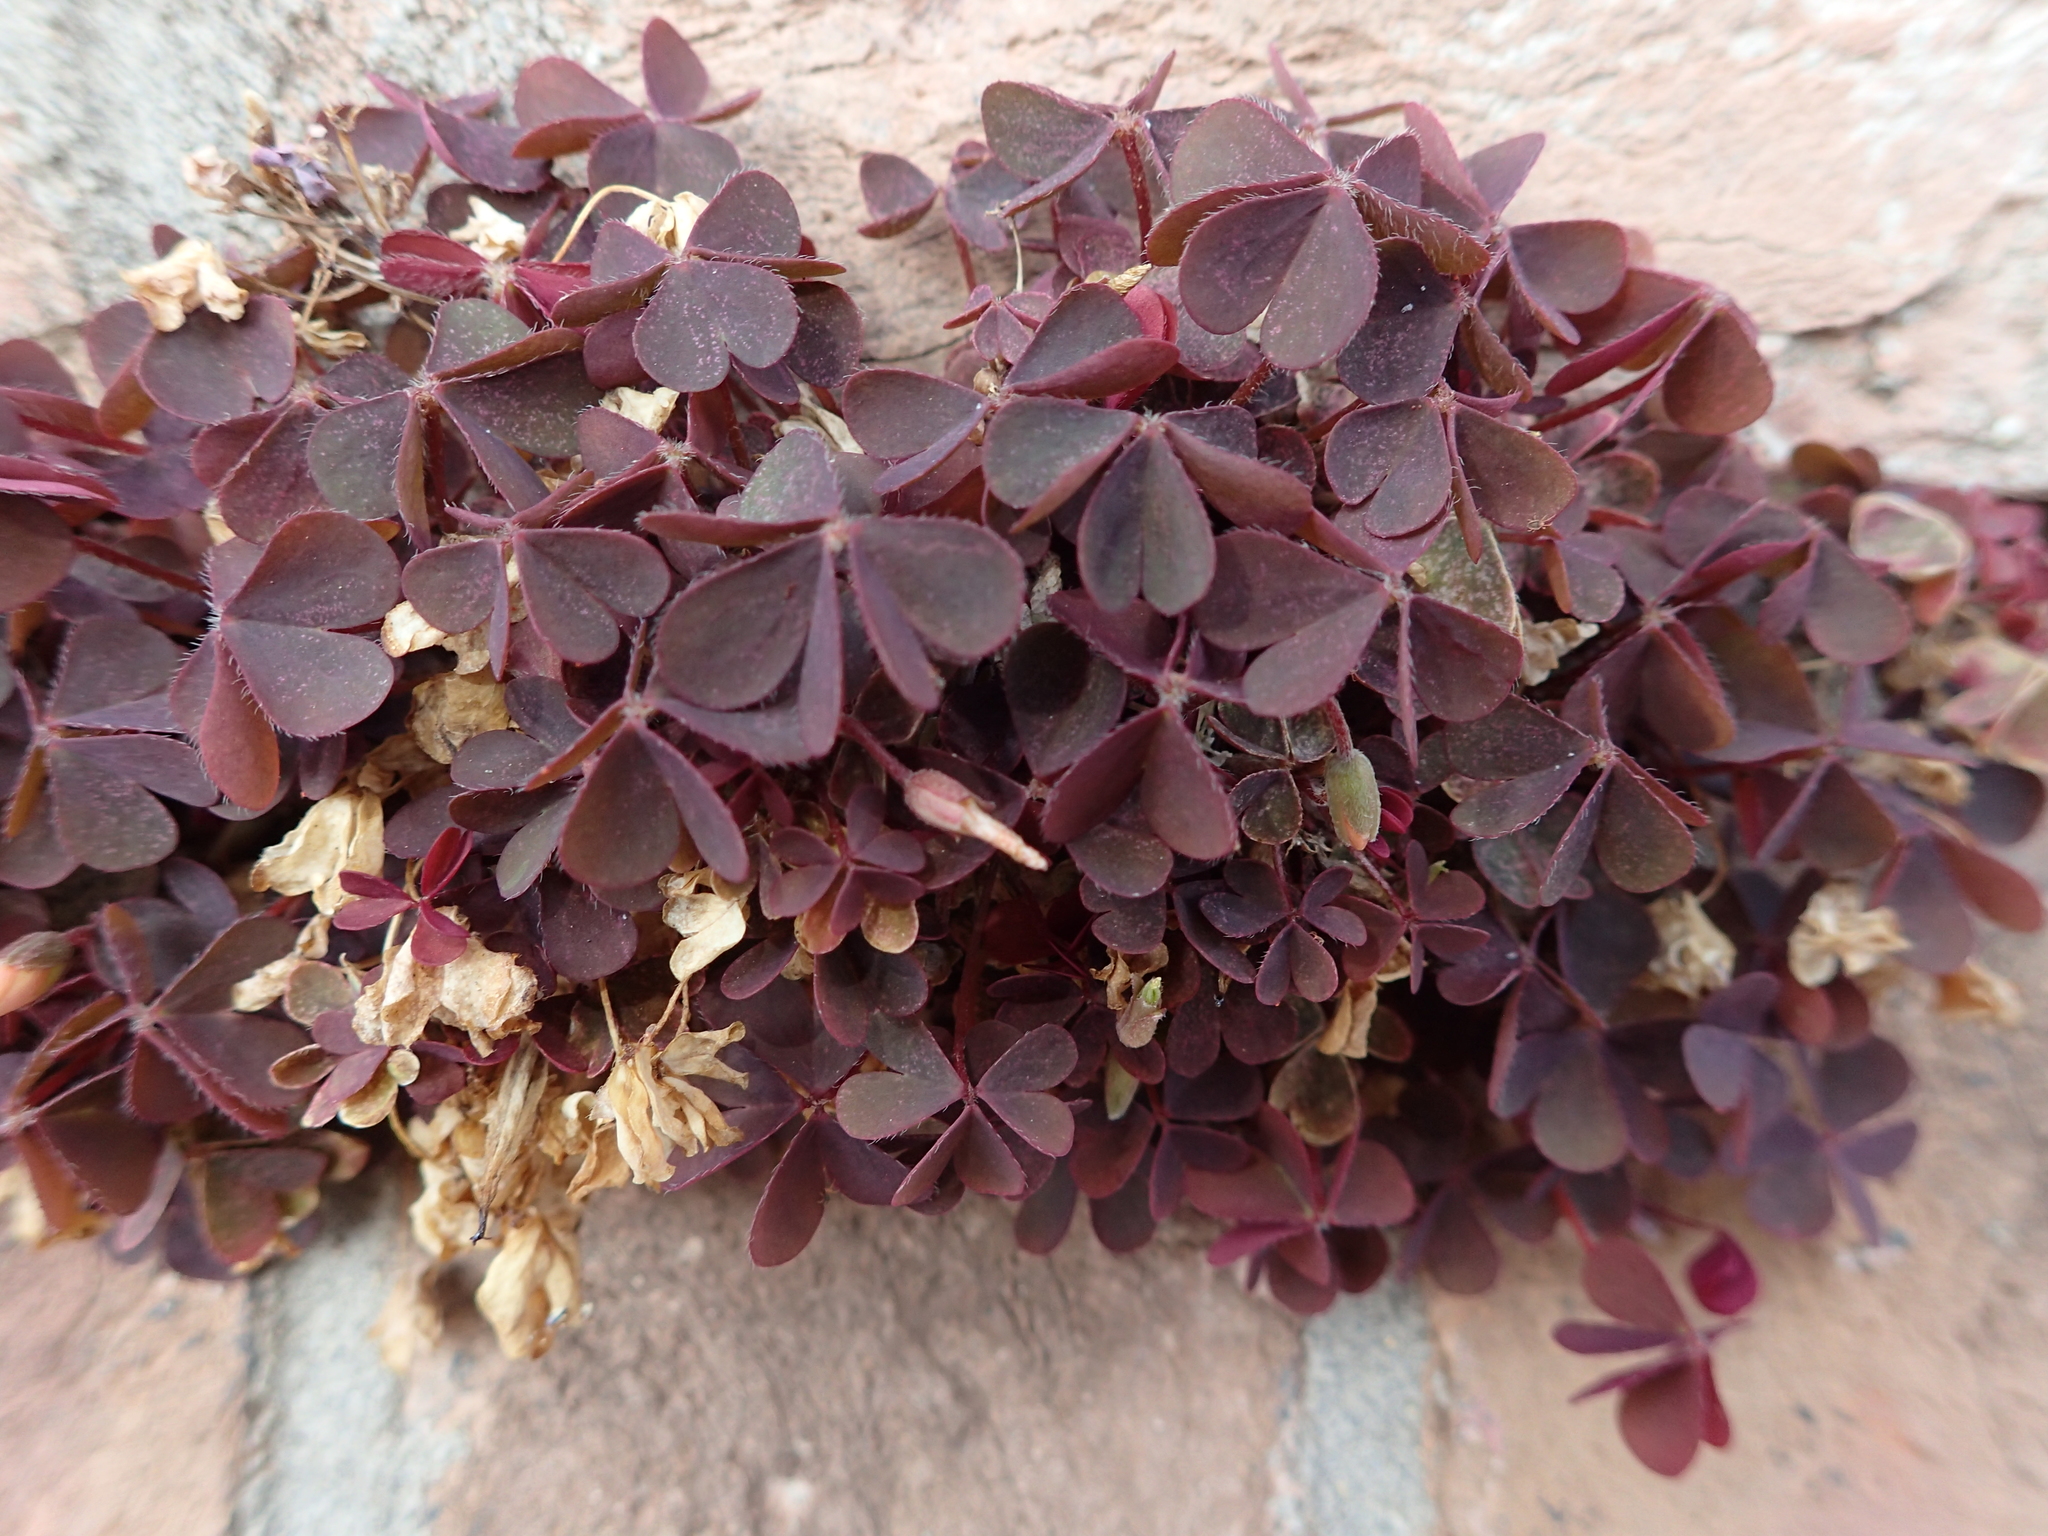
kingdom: Plantae
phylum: Tracheophyta
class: Magnoliopsida
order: Oxalidales
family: Oxalidaceae
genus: Oxalis
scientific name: Oxalis corniculata
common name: Procumbent yellow-sorrel
